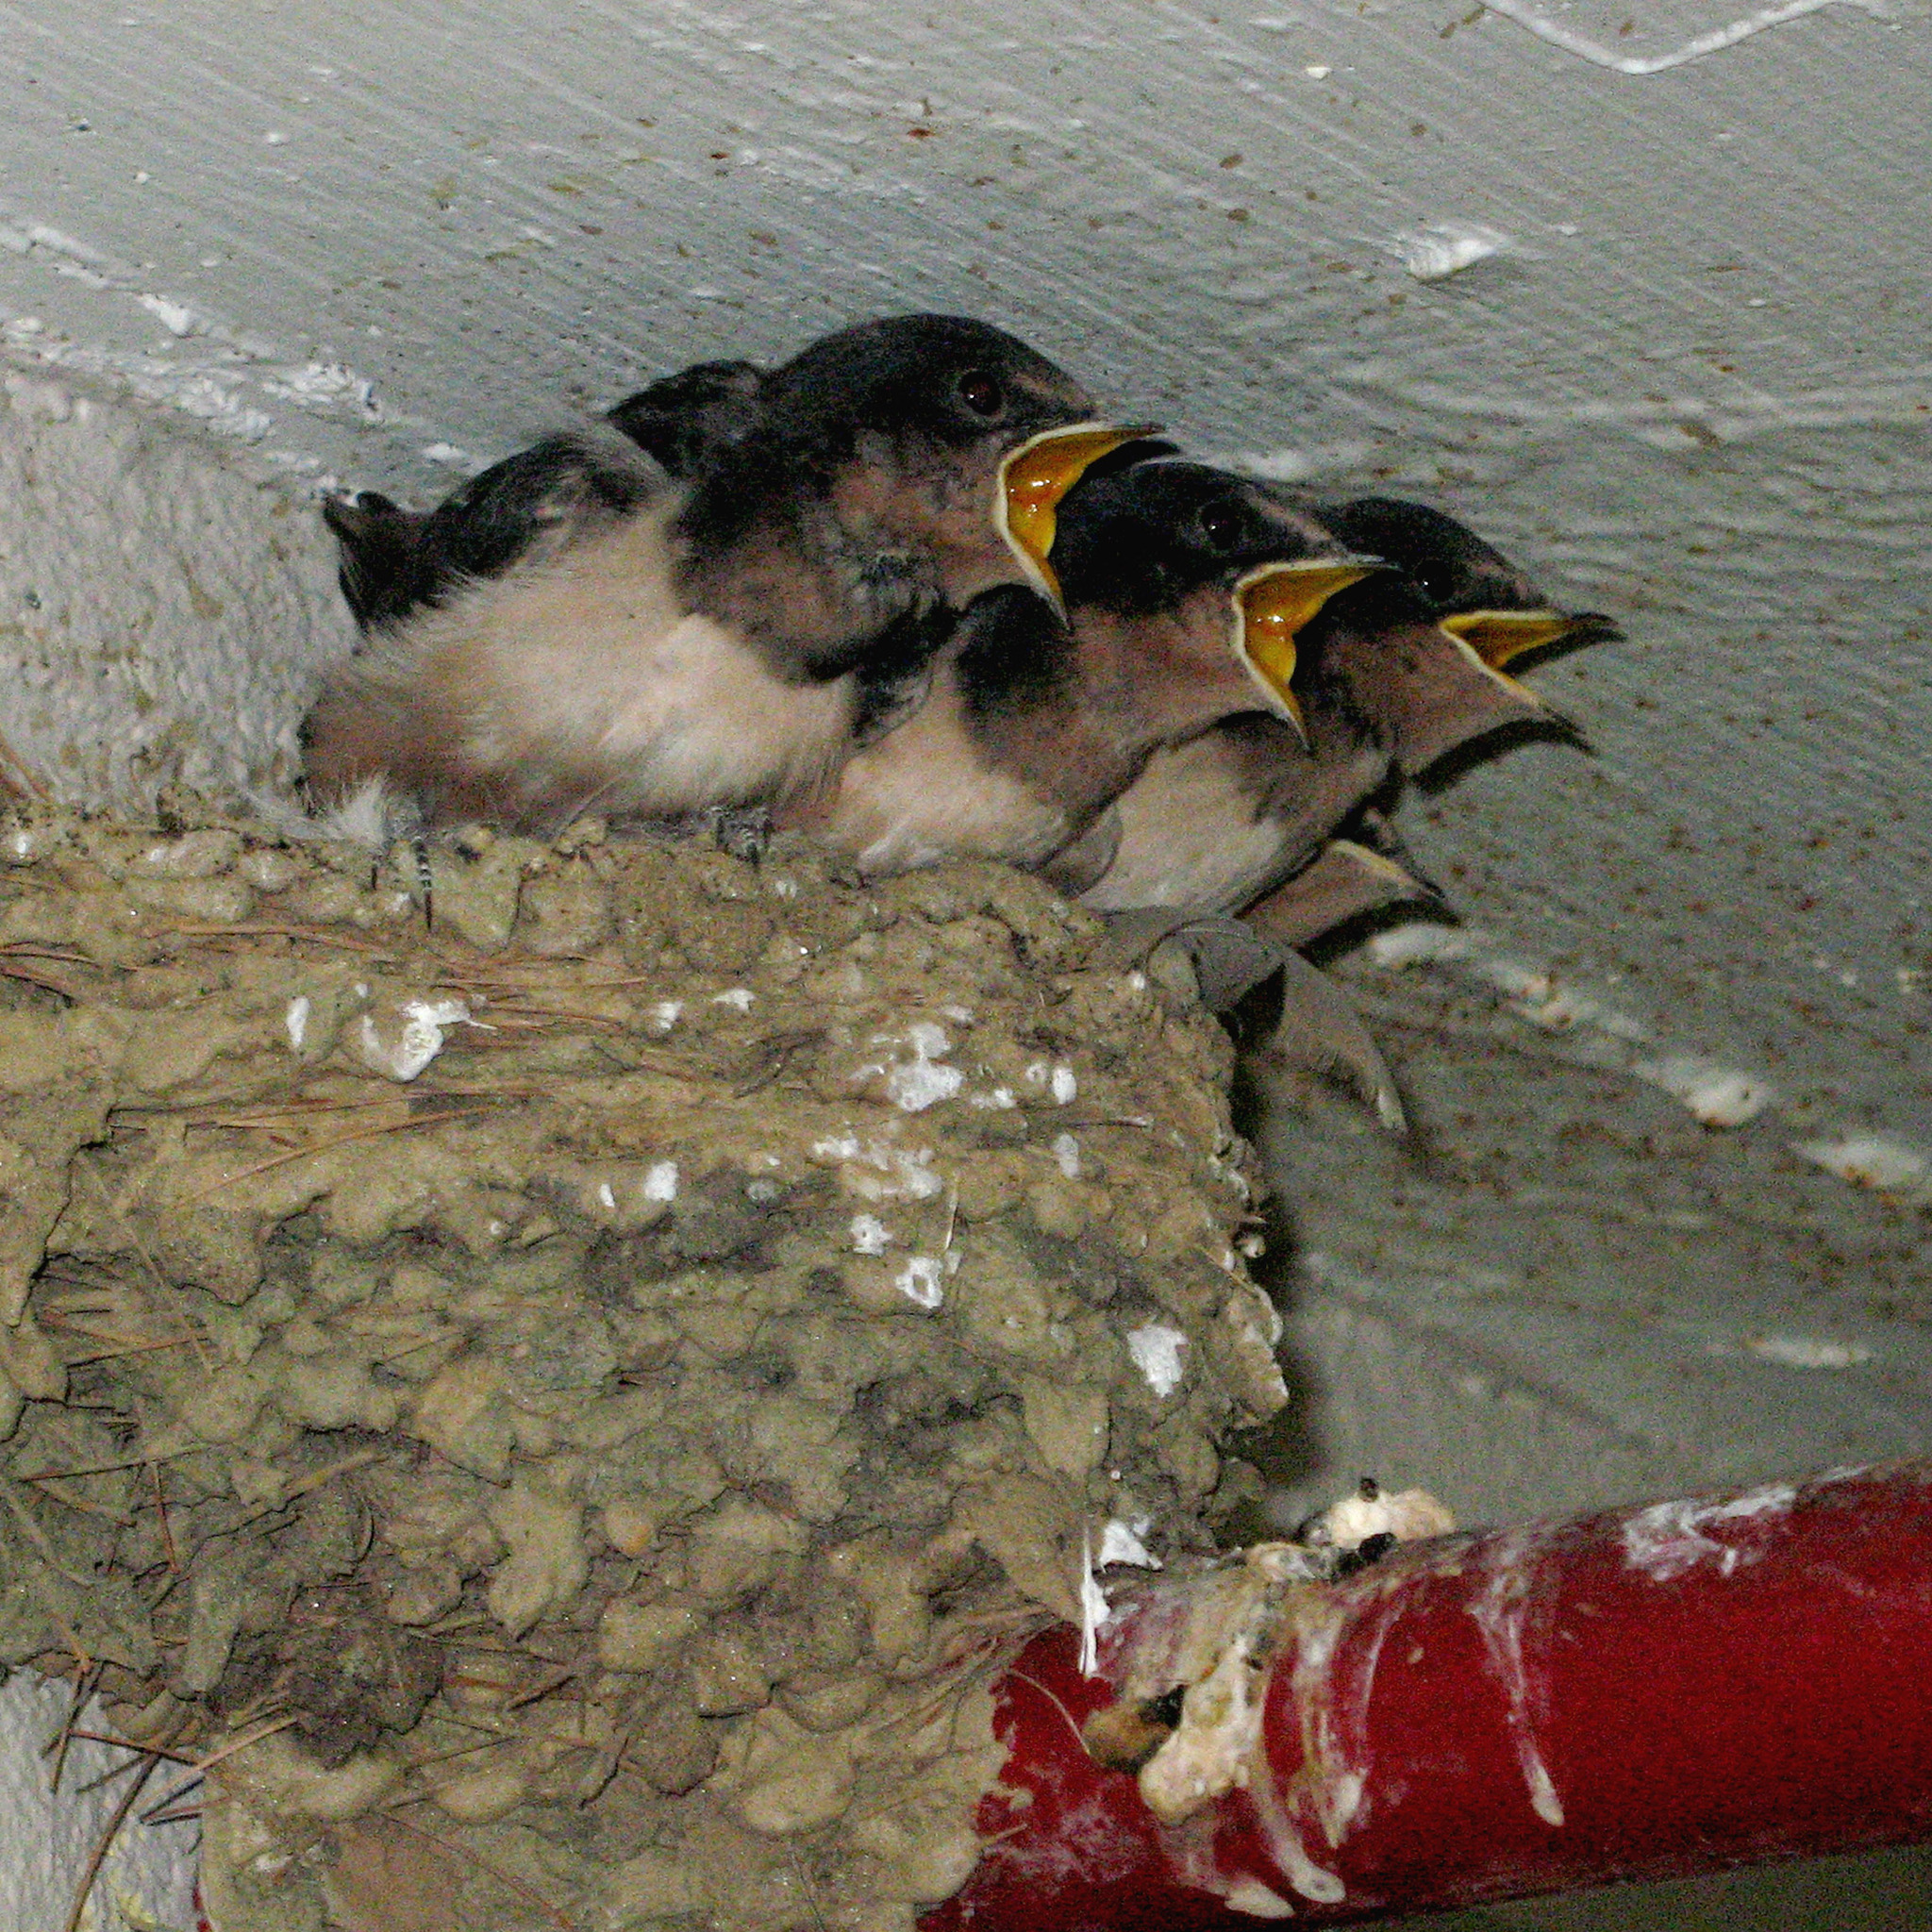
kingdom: Animalia
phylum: Chordata
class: Aves
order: Passeriformes
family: Hirundinidae
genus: Hirundo
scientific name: Hirundo rustica
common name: Barn swallow
